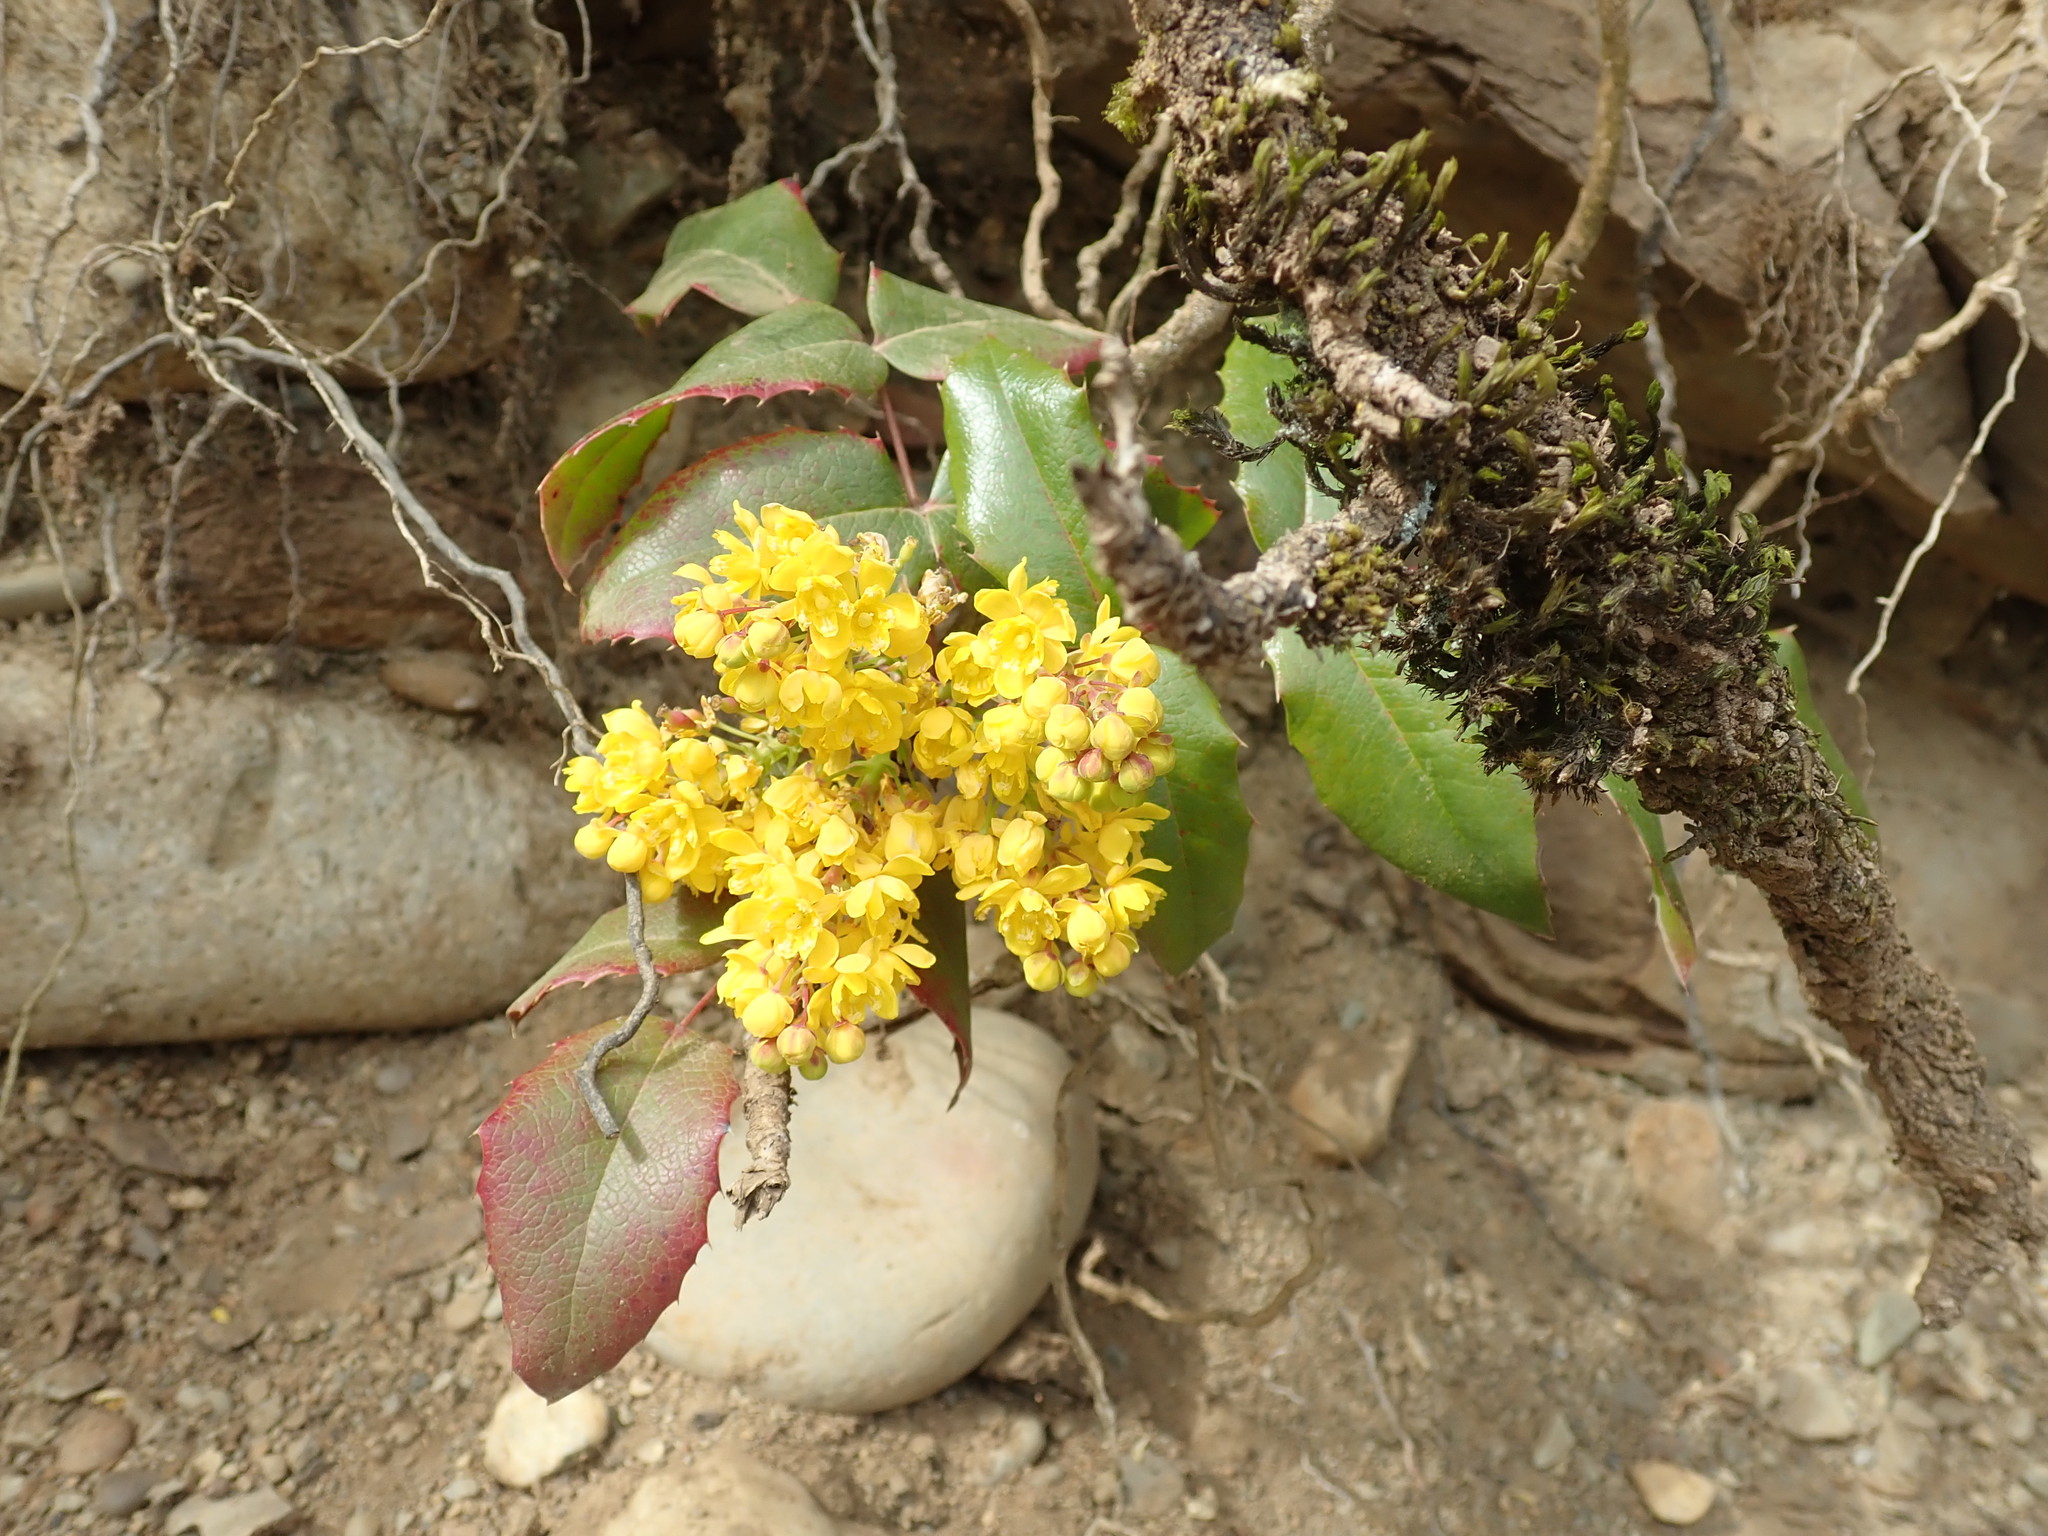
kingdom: Plantae
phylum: Tracheophyta
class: Magnoliopsida
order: Ranunculales
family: Berberidaceae
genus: Mahonia
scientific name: Mahonia aquifolium
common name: Oregon-grape
